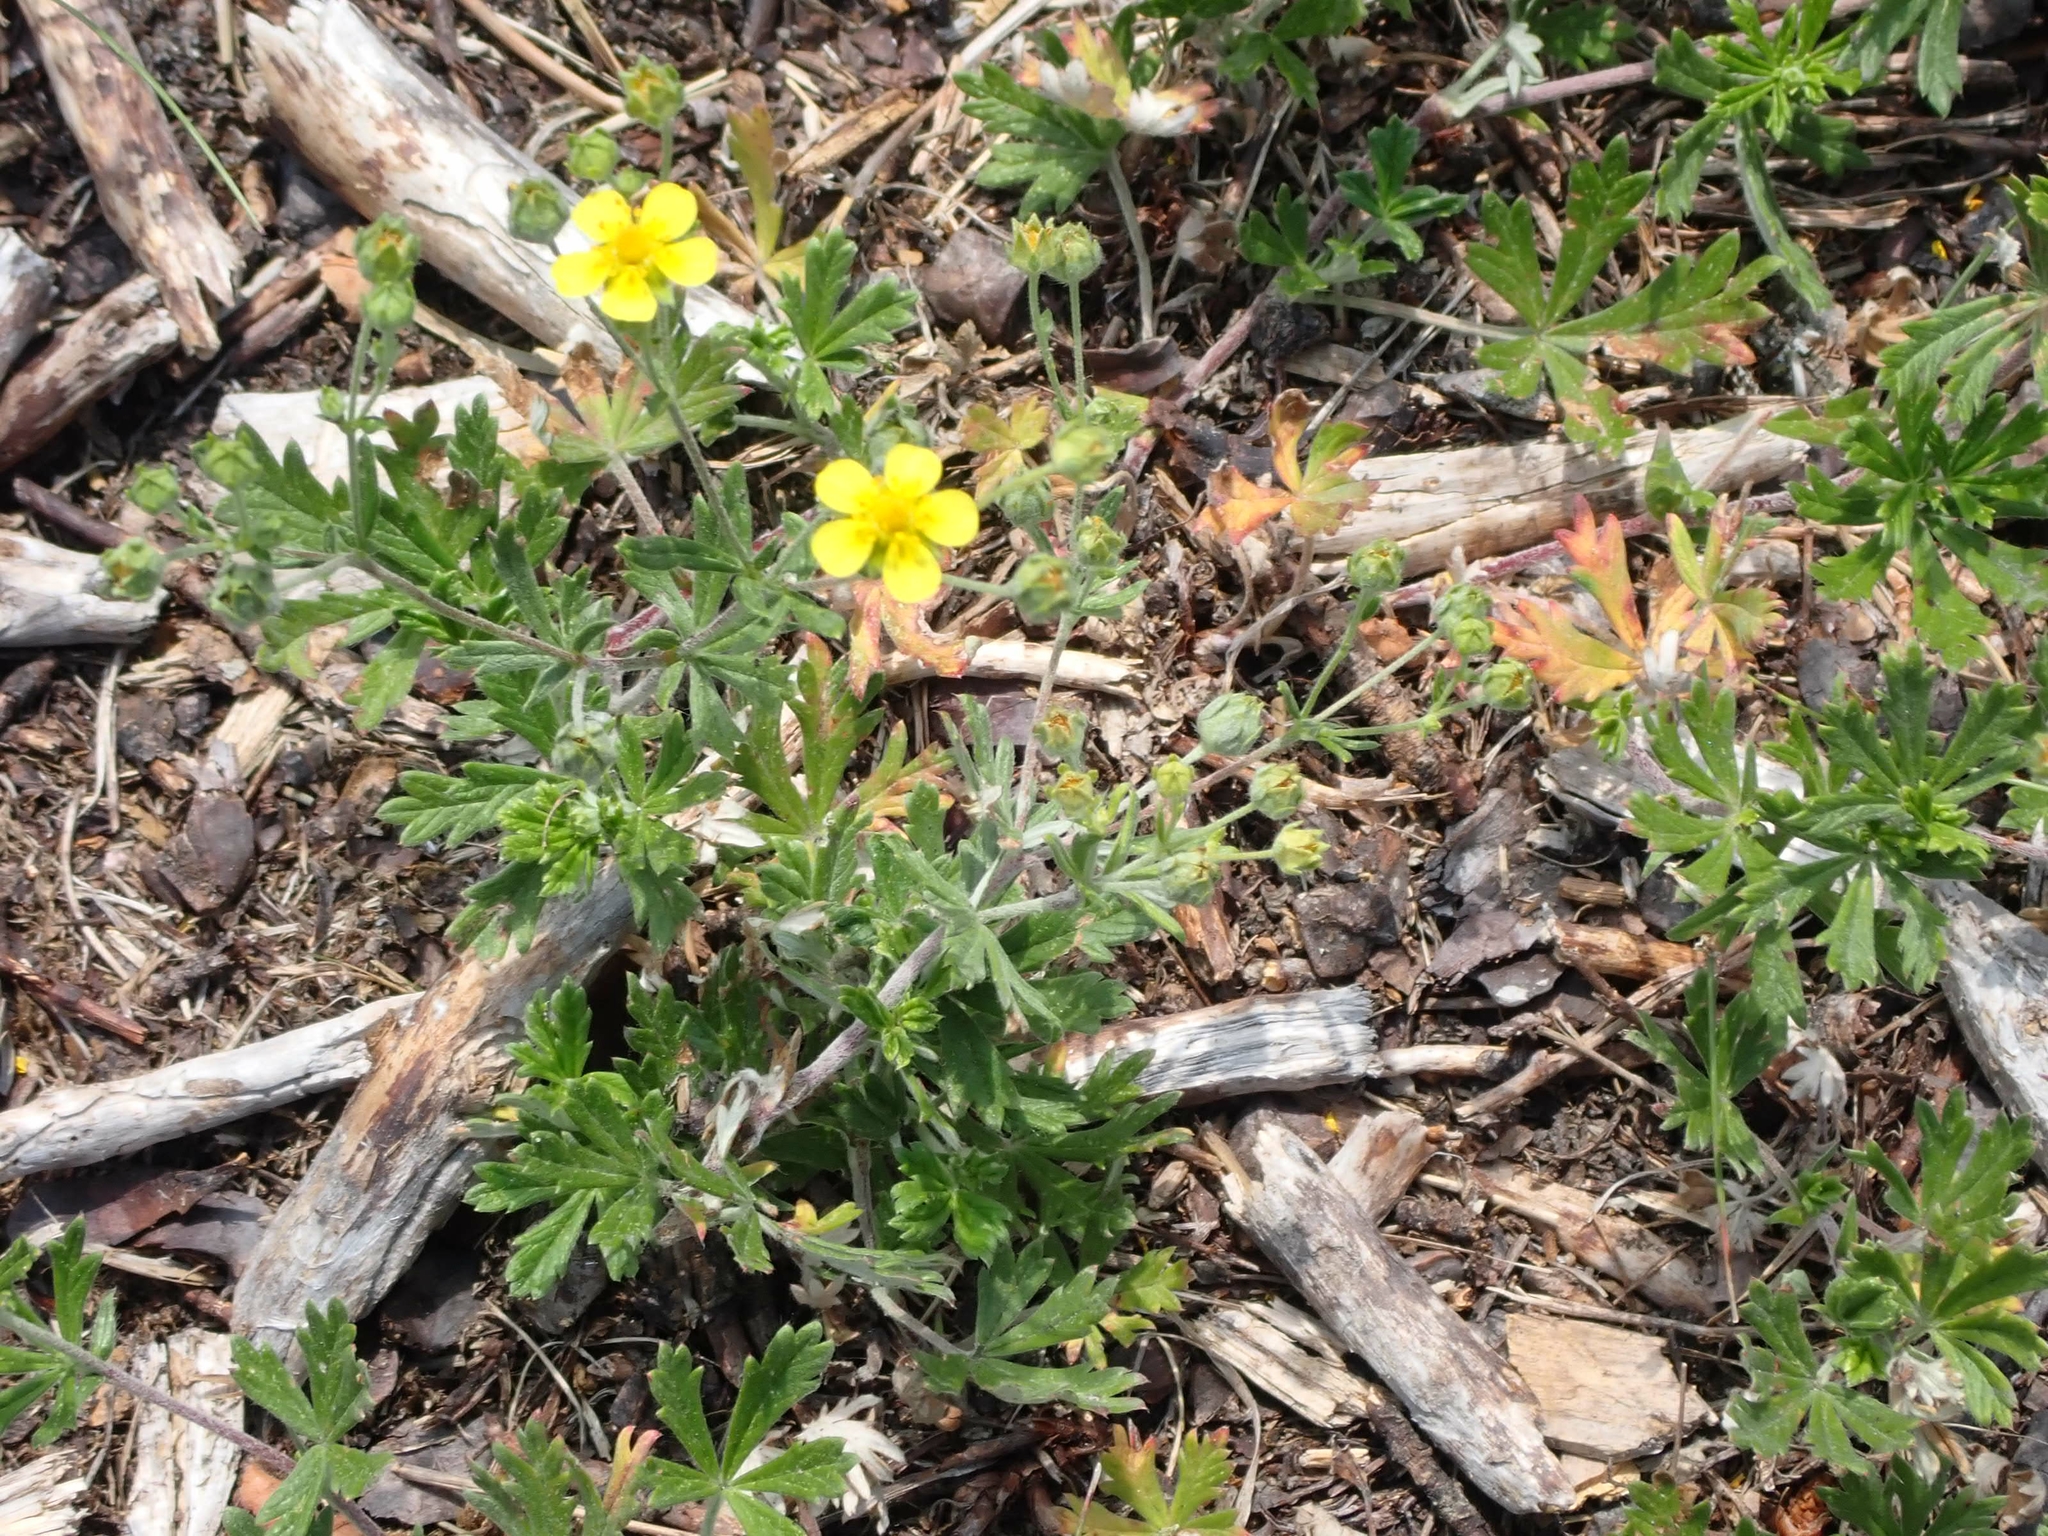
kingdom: Plantae
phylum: Tracheophyta
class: Magnoliopsida
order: Rosales
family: Rosaceae
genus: Potentilla
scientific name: Potentilla argentea
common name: Hoary cinquefoil
